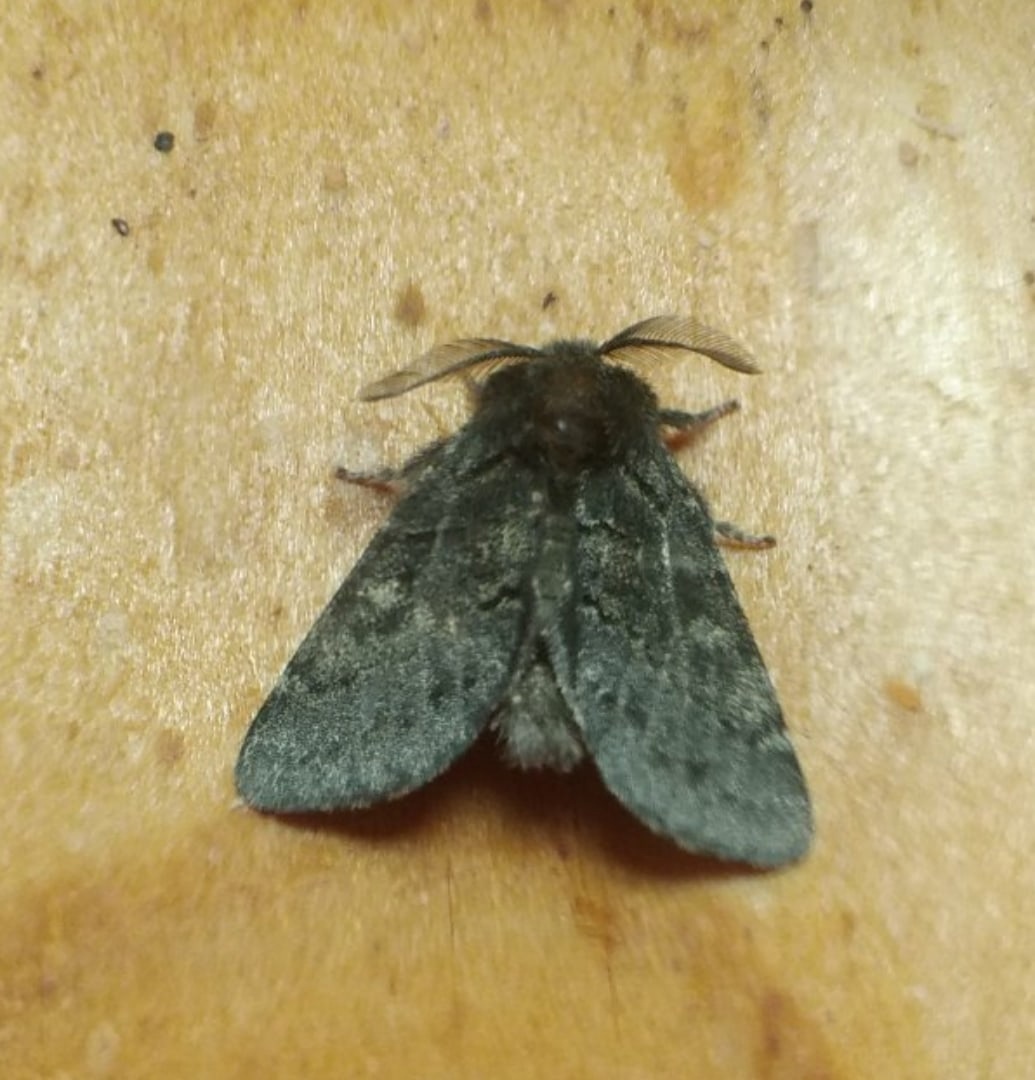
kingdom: Animalia
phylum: Arthropoda
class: Insecta
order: Lepidoptera
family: Notodontidae
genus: Gluphisia
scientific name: Gluphisia crenata
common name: Dusky marbled brown
